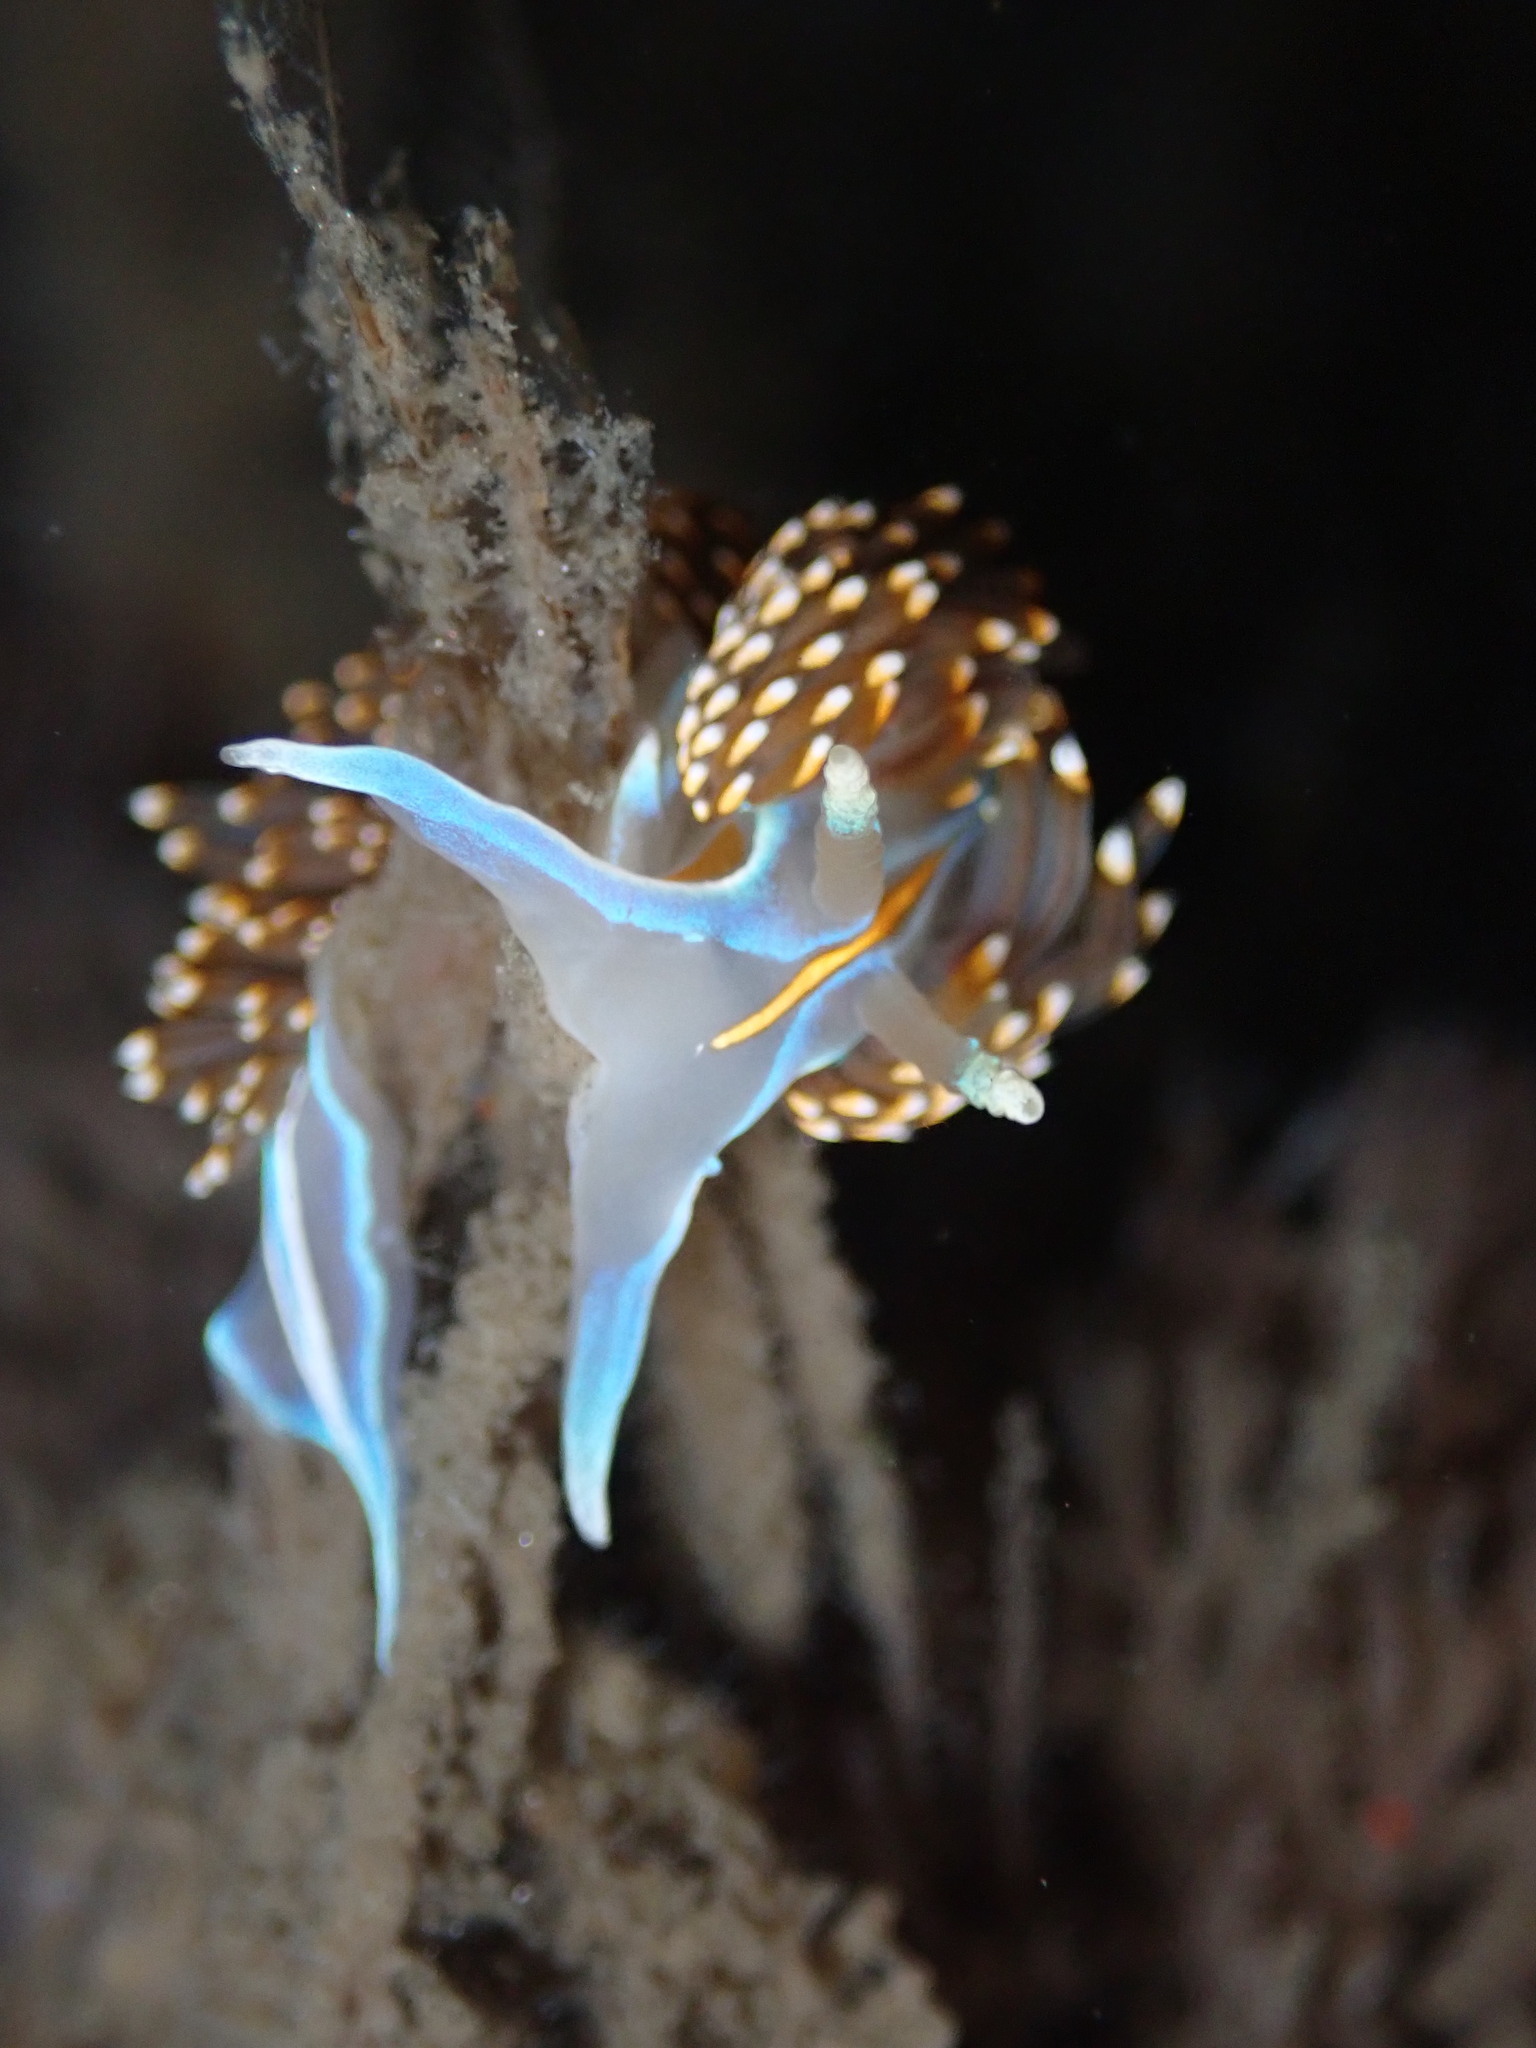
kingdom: Animalia
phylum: Mollusca
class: Gastropoda
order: Nudibranchia
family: Myrrhinidae
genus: Hermissenda
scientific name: Hermissenda opalescens
